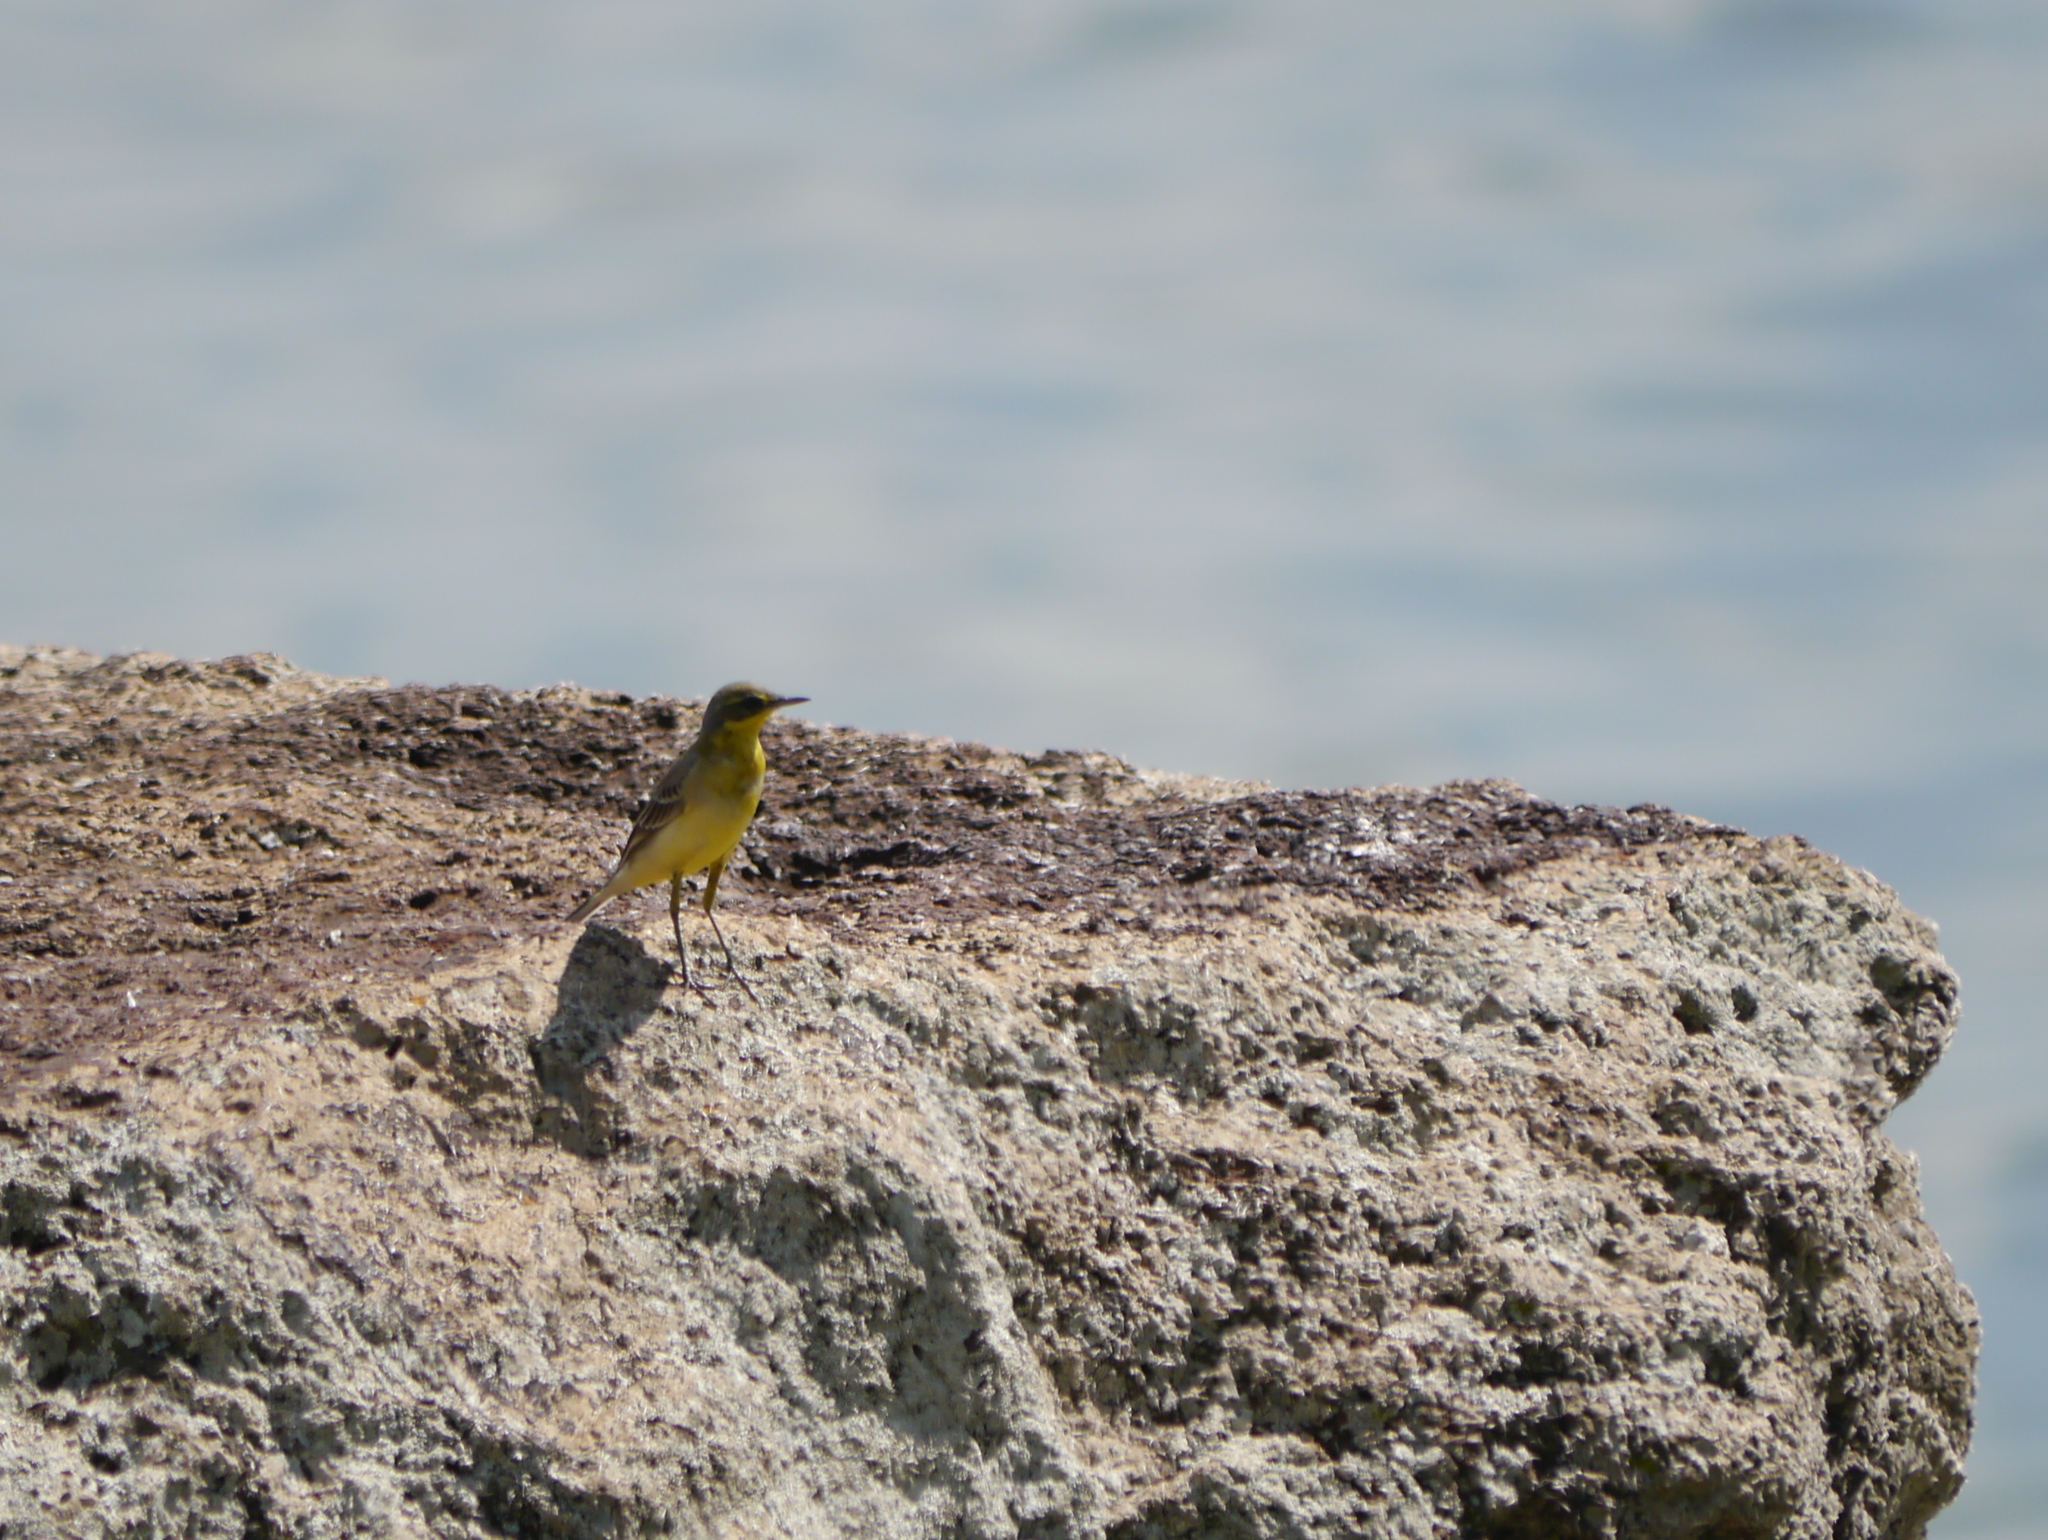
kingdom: Animalia
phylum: Chordata
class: Aves
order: Passeriformes
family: Motacillidae
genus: Motacilla
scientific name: Motacilla flava
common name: Western yellow wagtail
